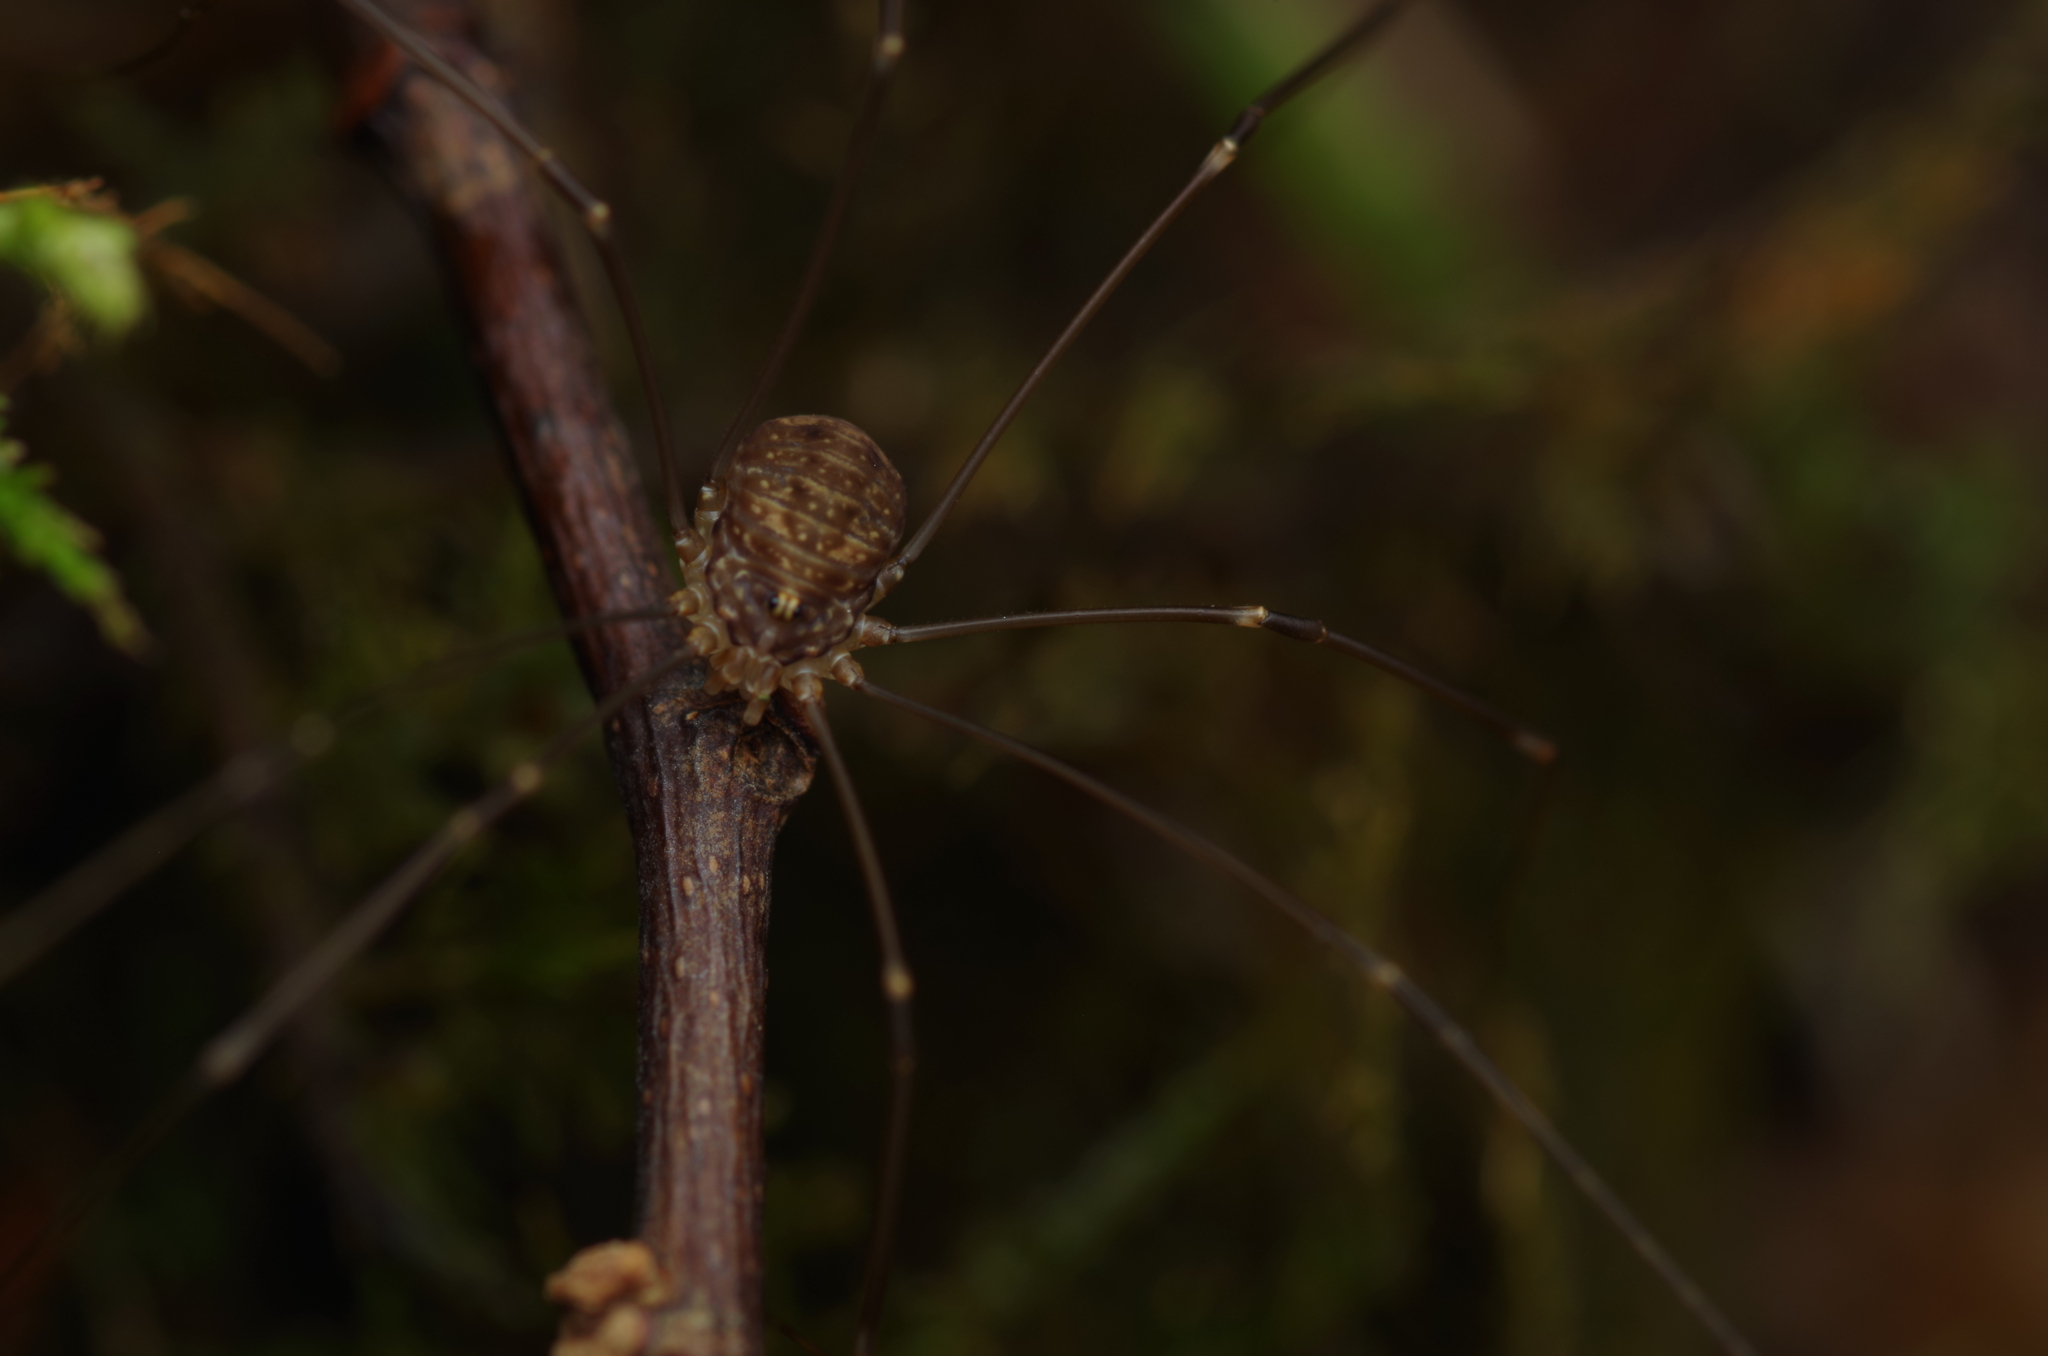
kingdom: Animalia
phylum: Arthropoda
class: Arachnida
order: Opiliones
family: Sclerosomatidae
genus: Leiobunum
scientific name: Leiobunum blackwalli
